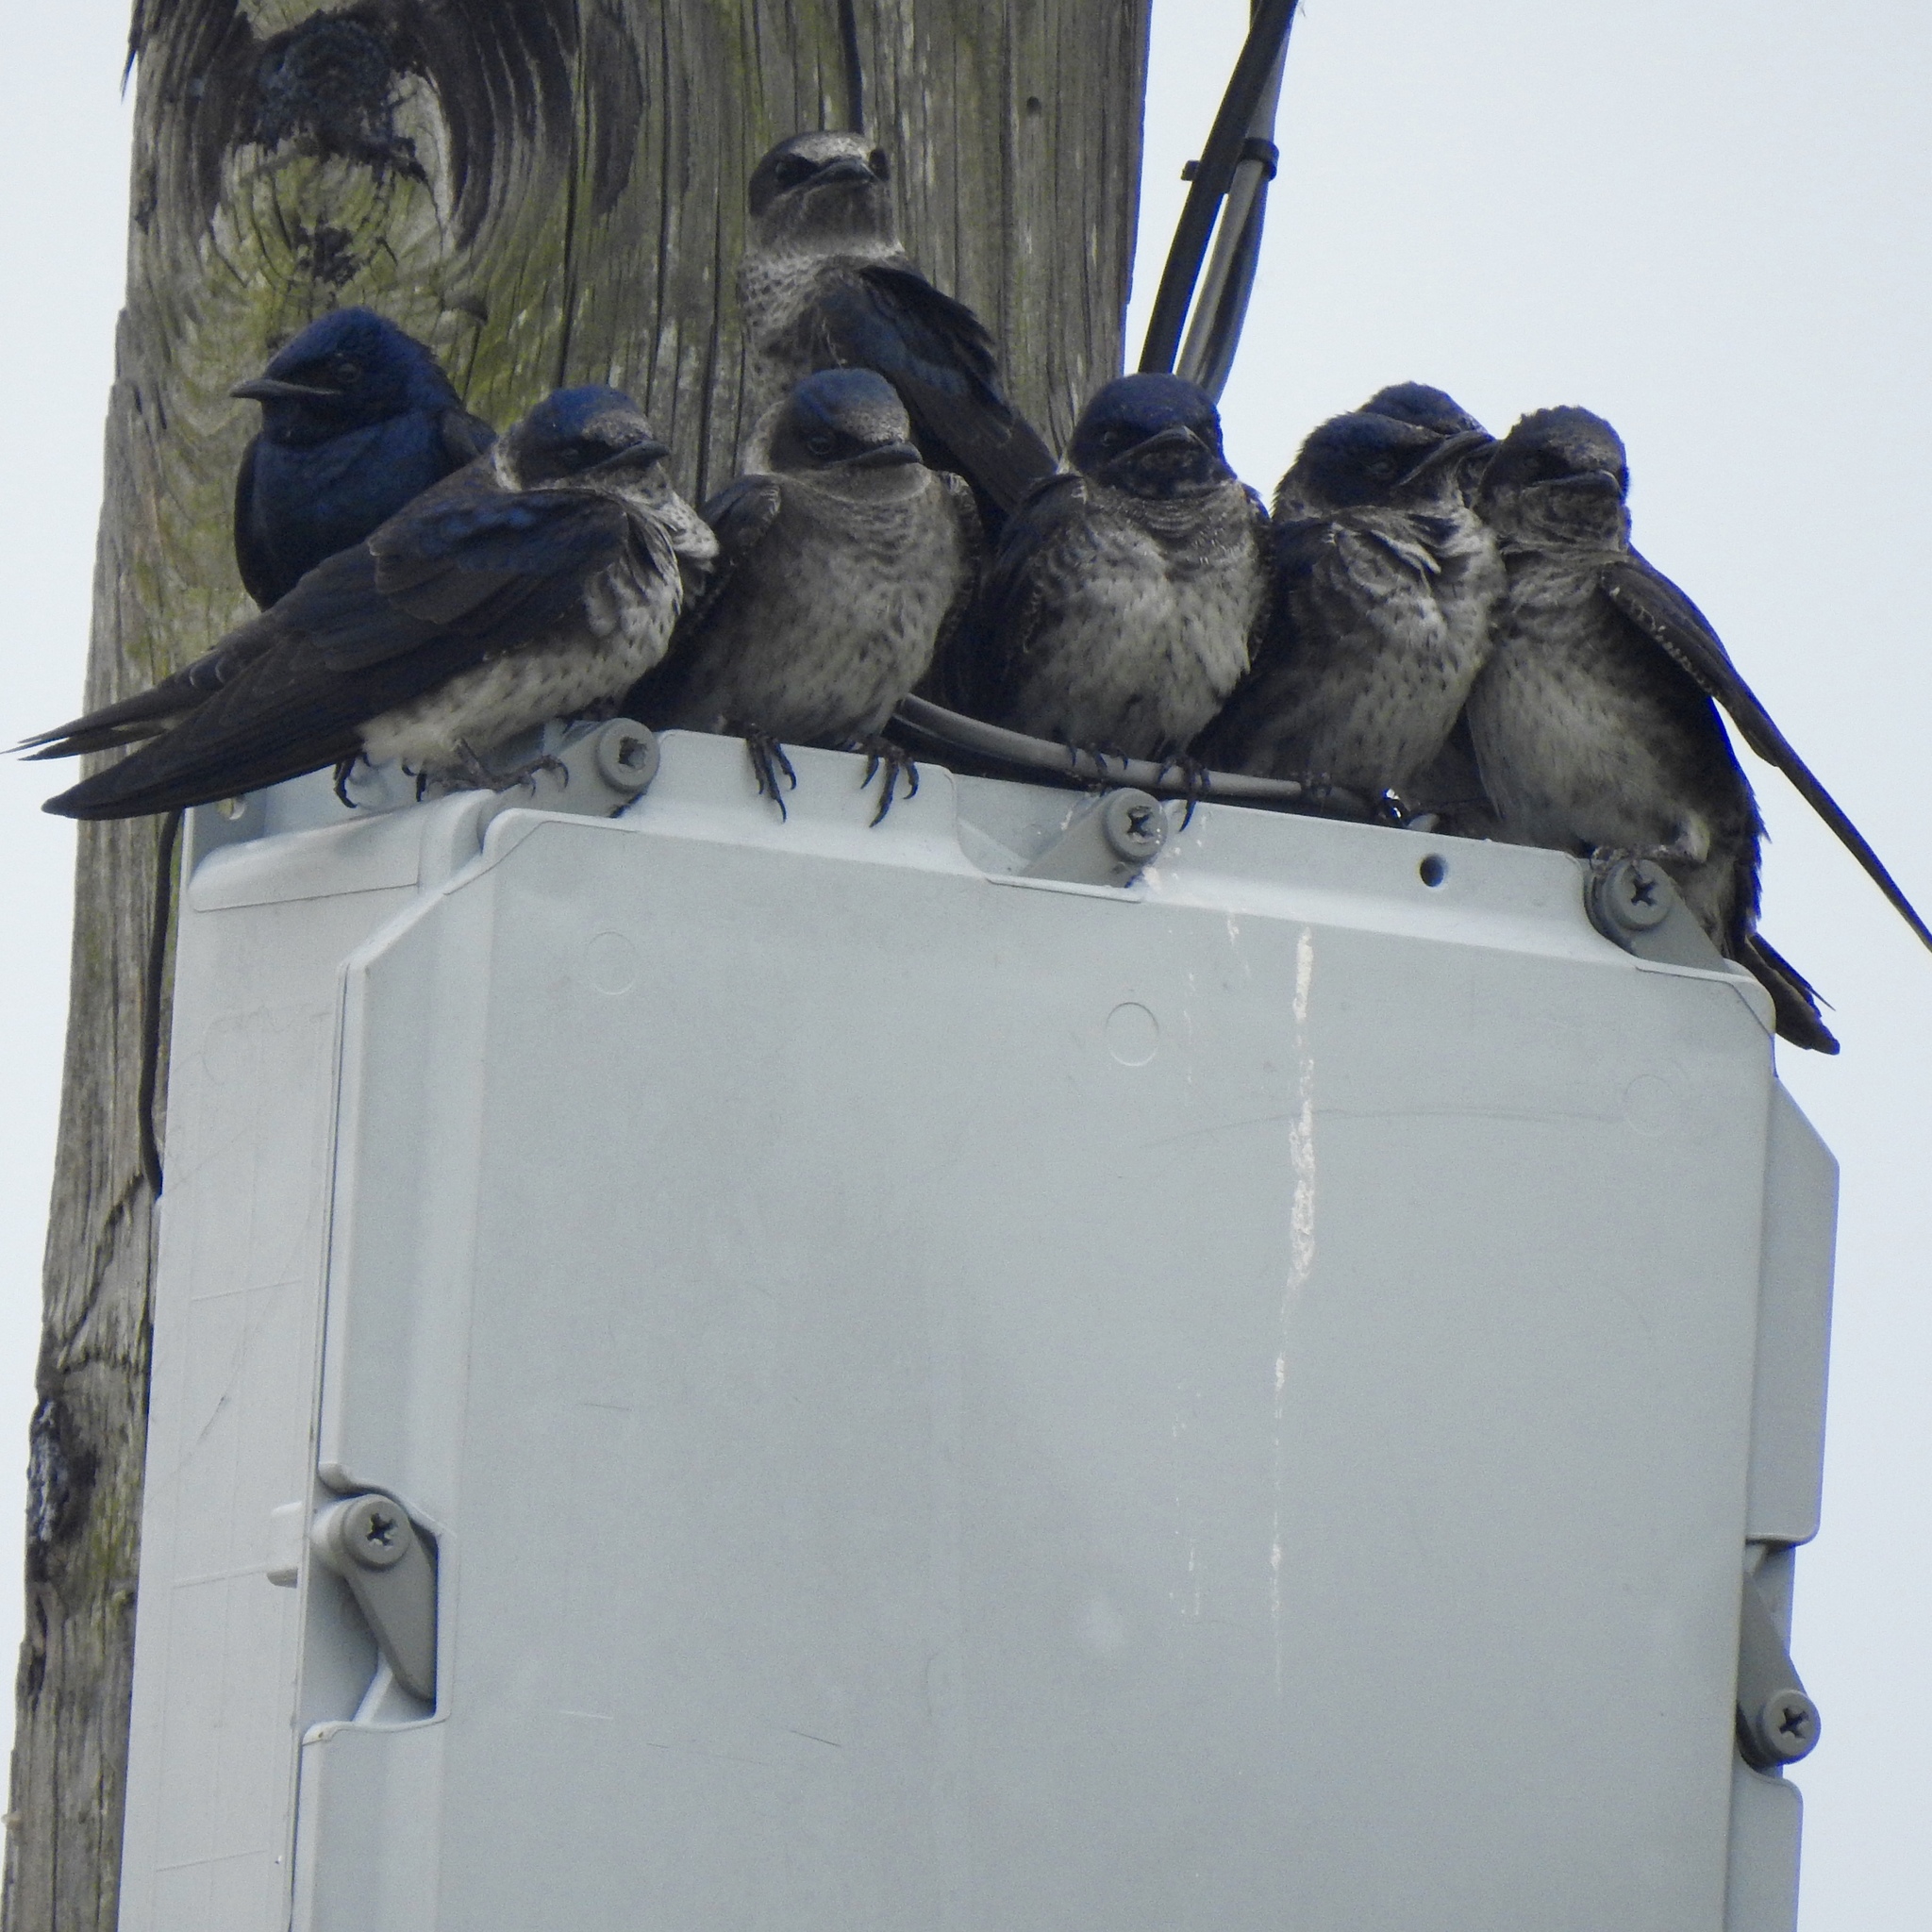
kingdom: Animalia
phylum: Chordata
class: Aves
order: Passeriformes
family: Hirundinidae
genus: Progne
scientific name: Progne subis
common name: Purple martin
